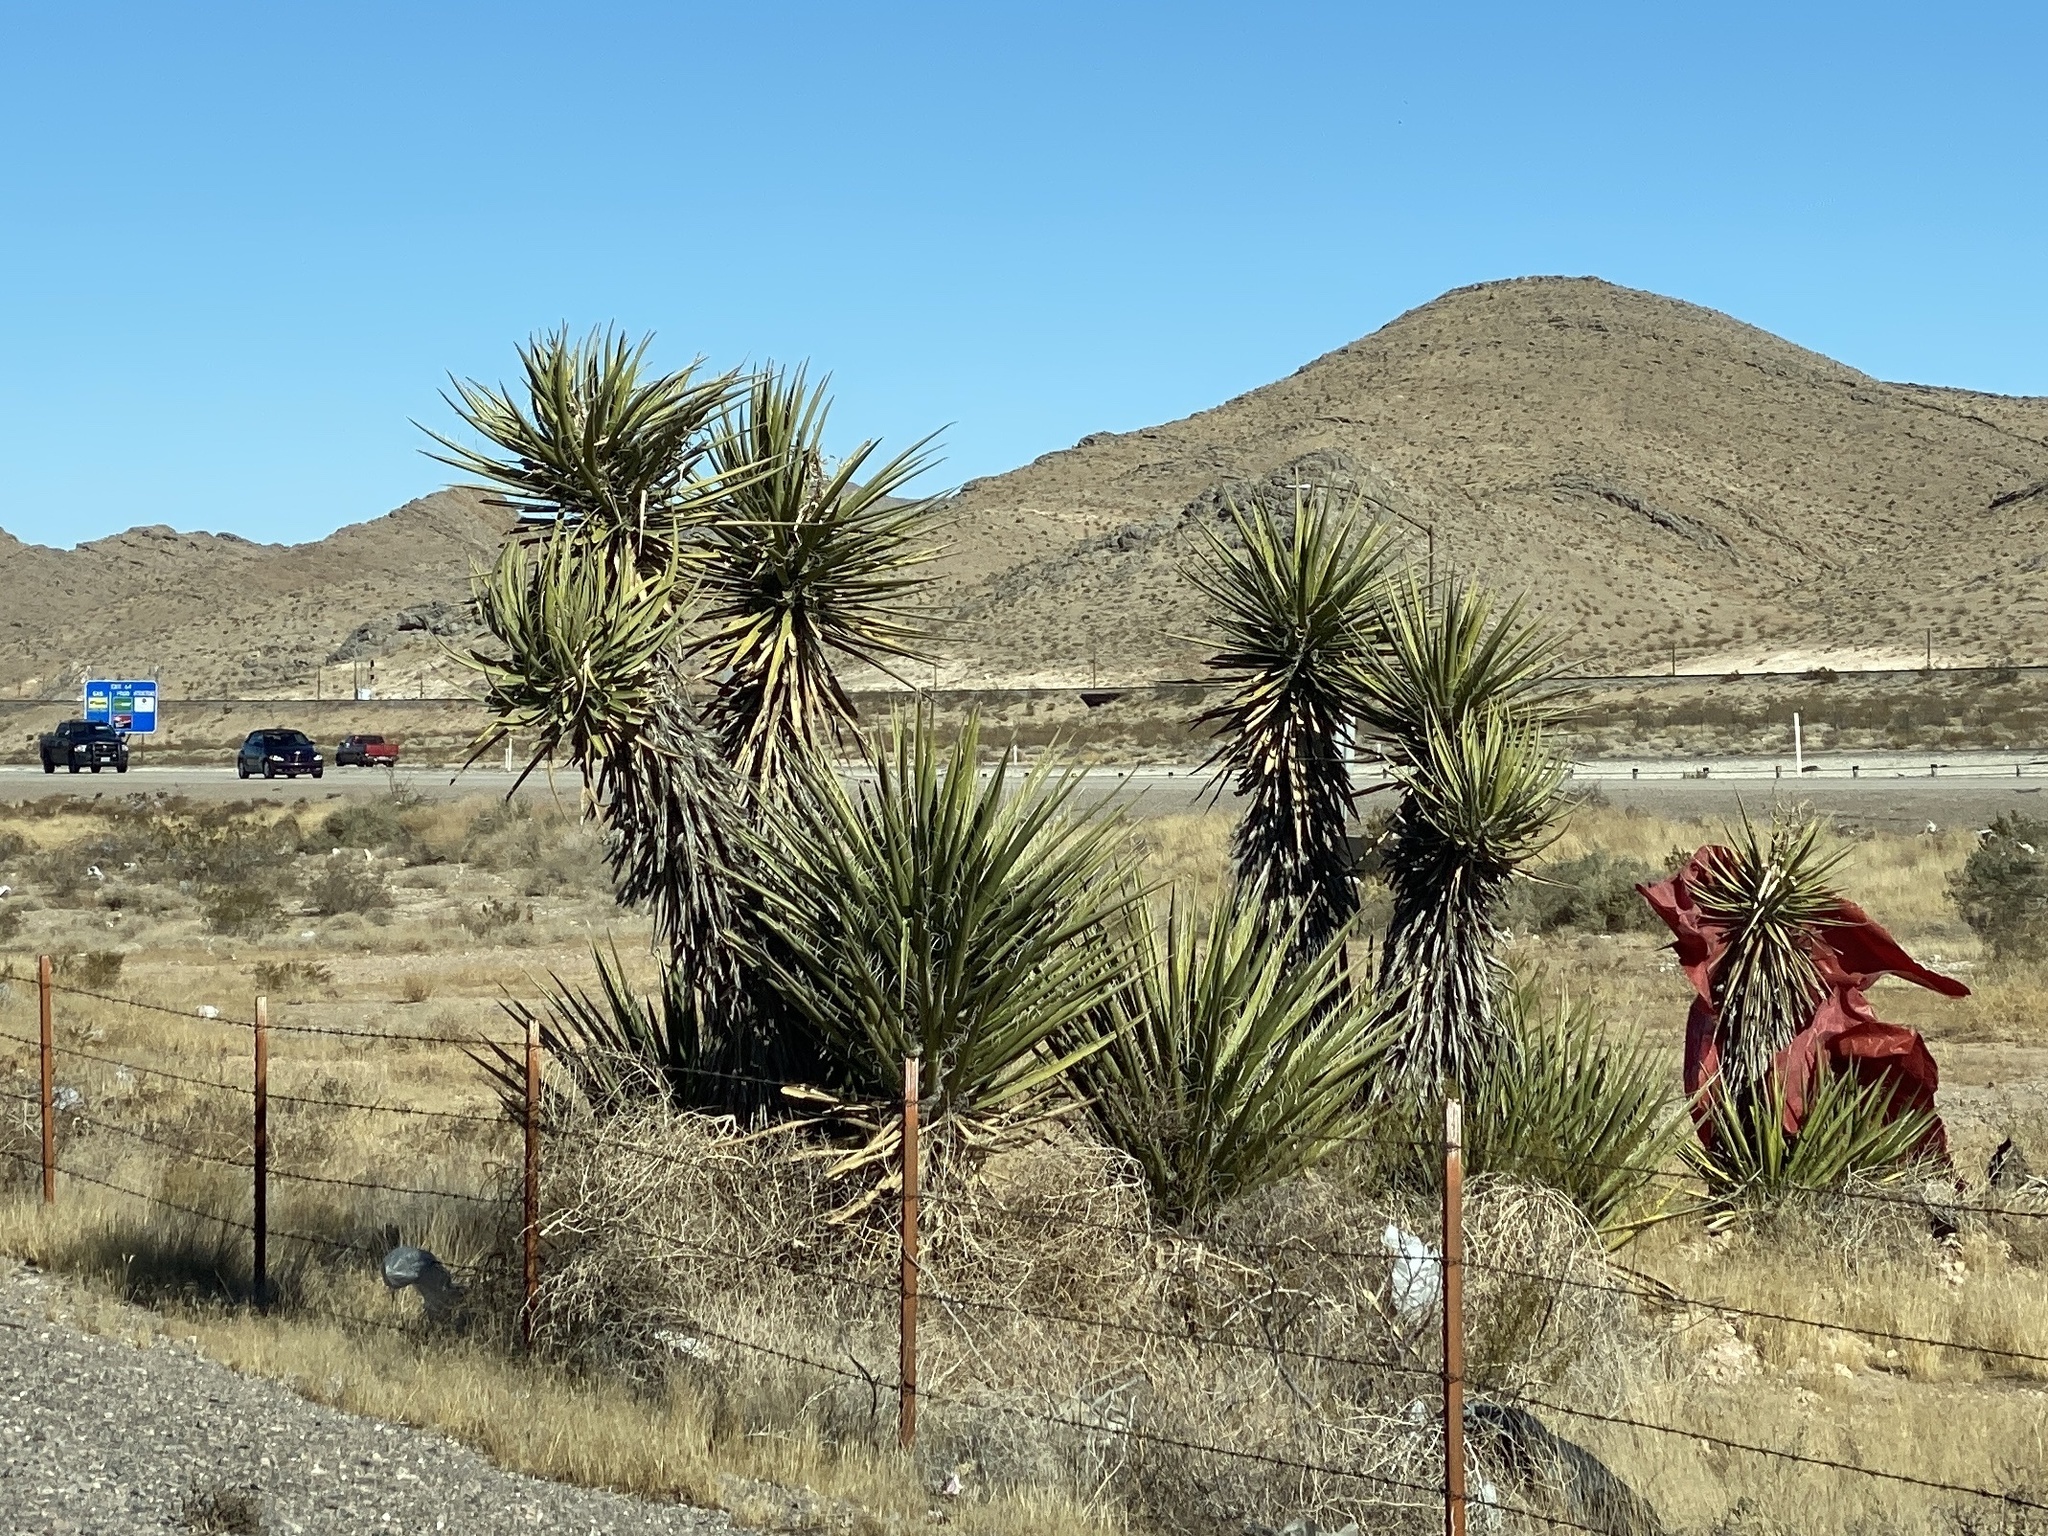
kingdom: Plantae
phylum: Tracheophyta
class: Liliopsida
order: Asparagales
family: Asparagaceae
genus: Yucca
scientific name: Yucca schidigera
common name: Mojave yucca
